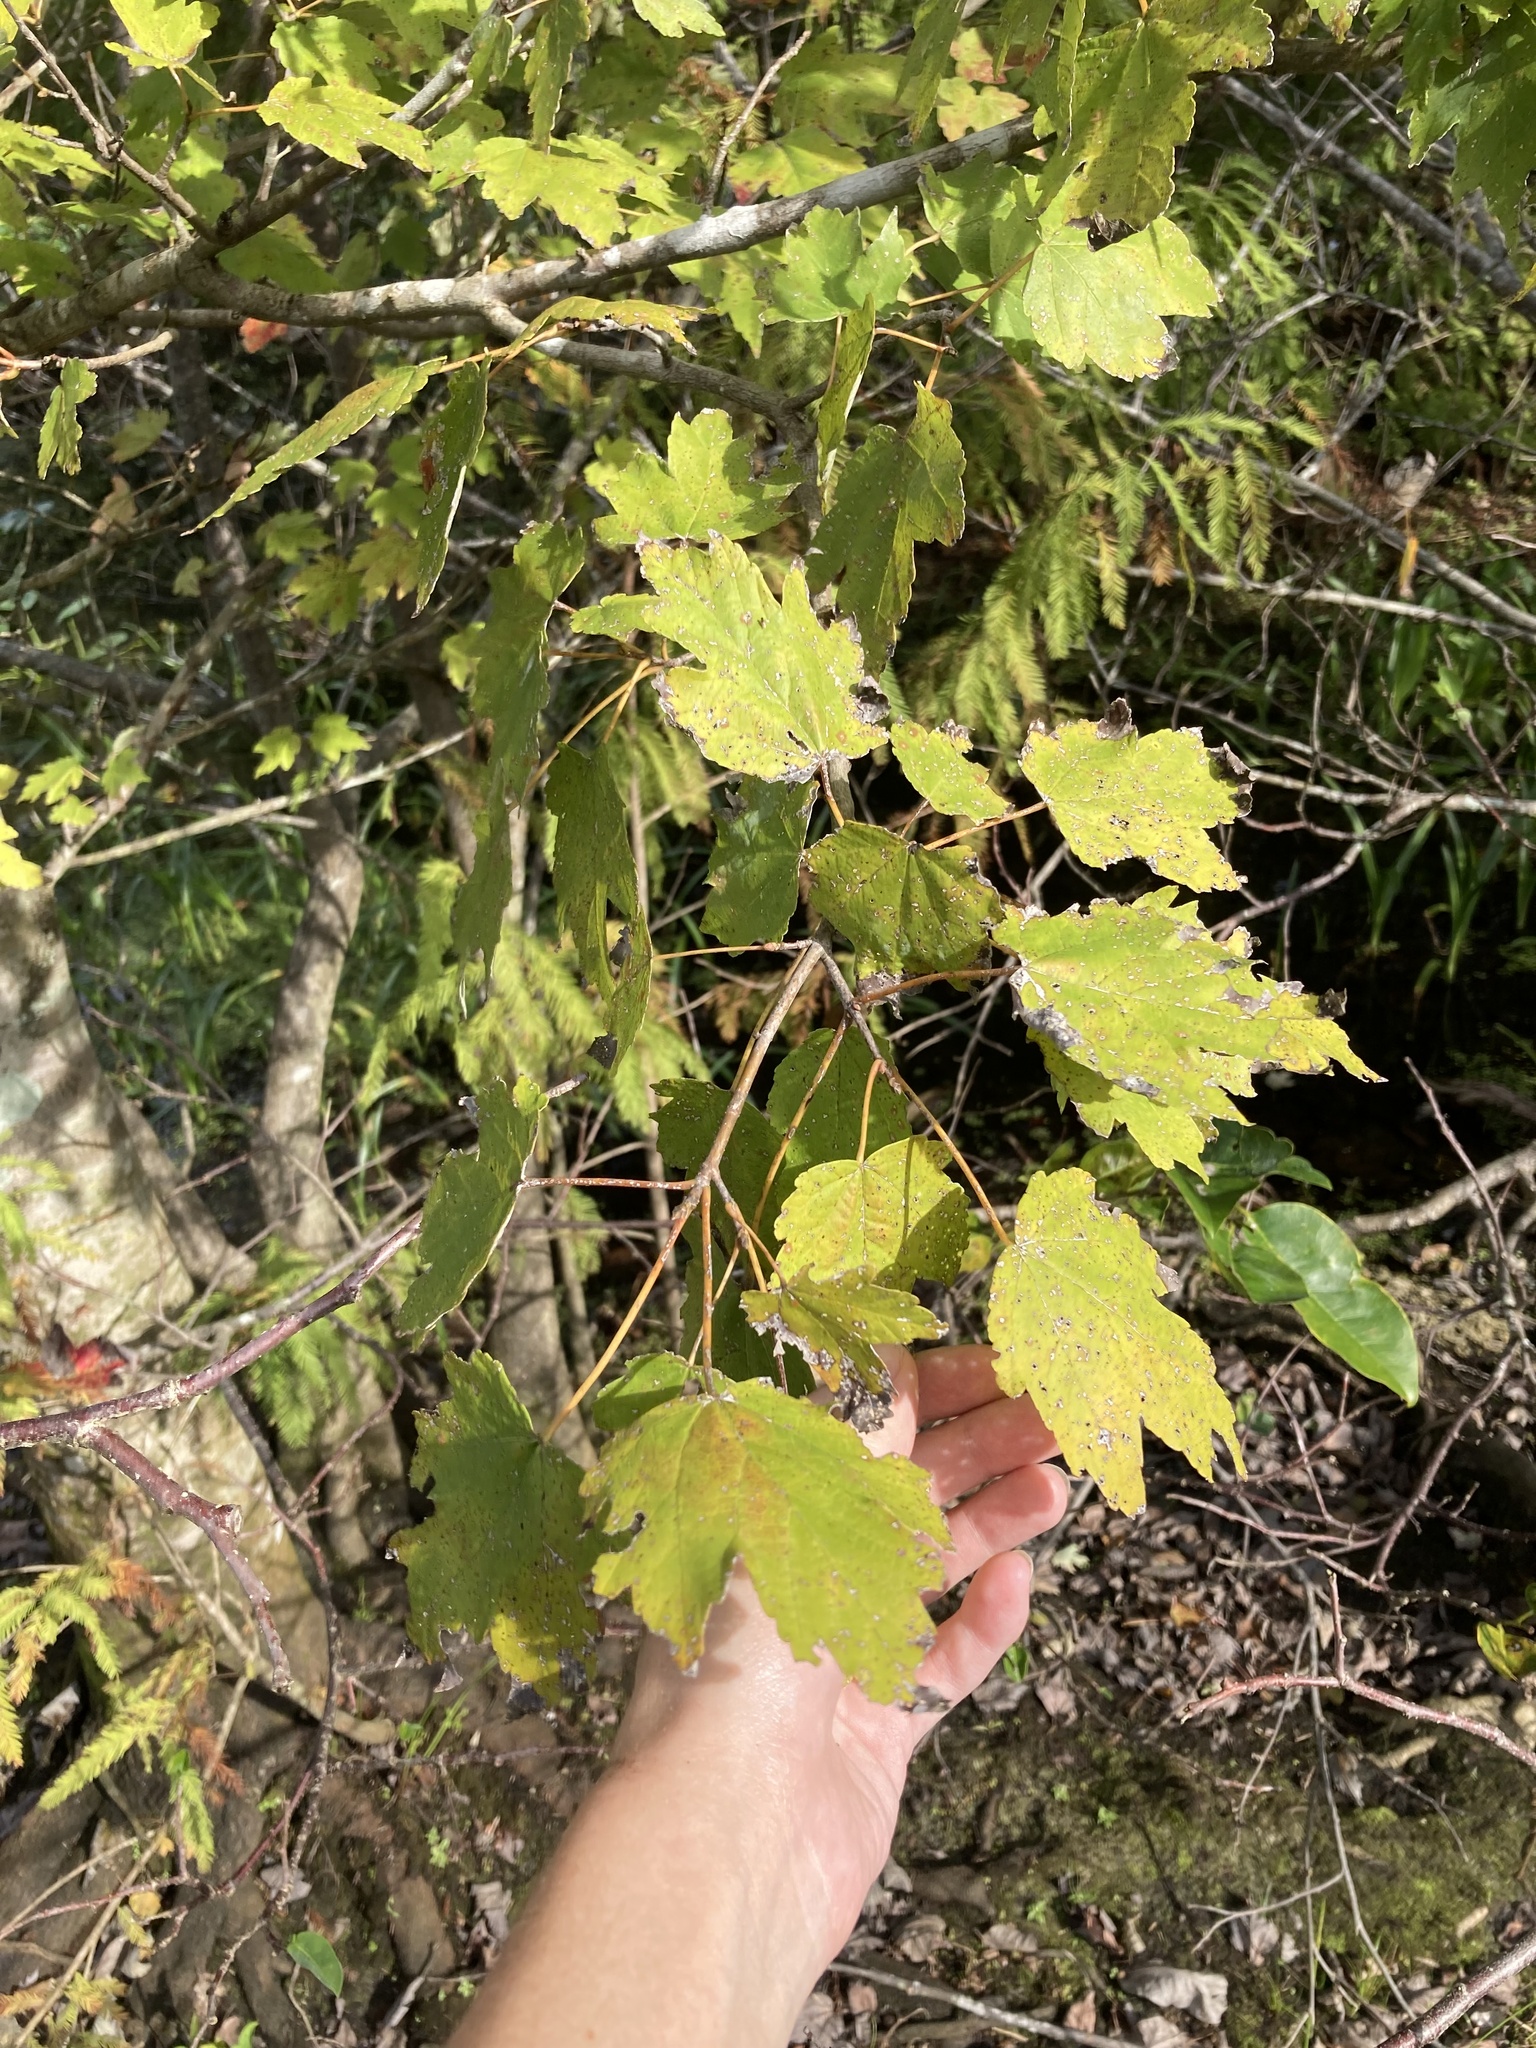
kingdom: Plantae
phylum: Tracheophyta
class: Magnoliopsida
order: Sapindales
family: Sapindaceae
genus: Acer
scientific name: Acer rubrum
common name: Red maple
